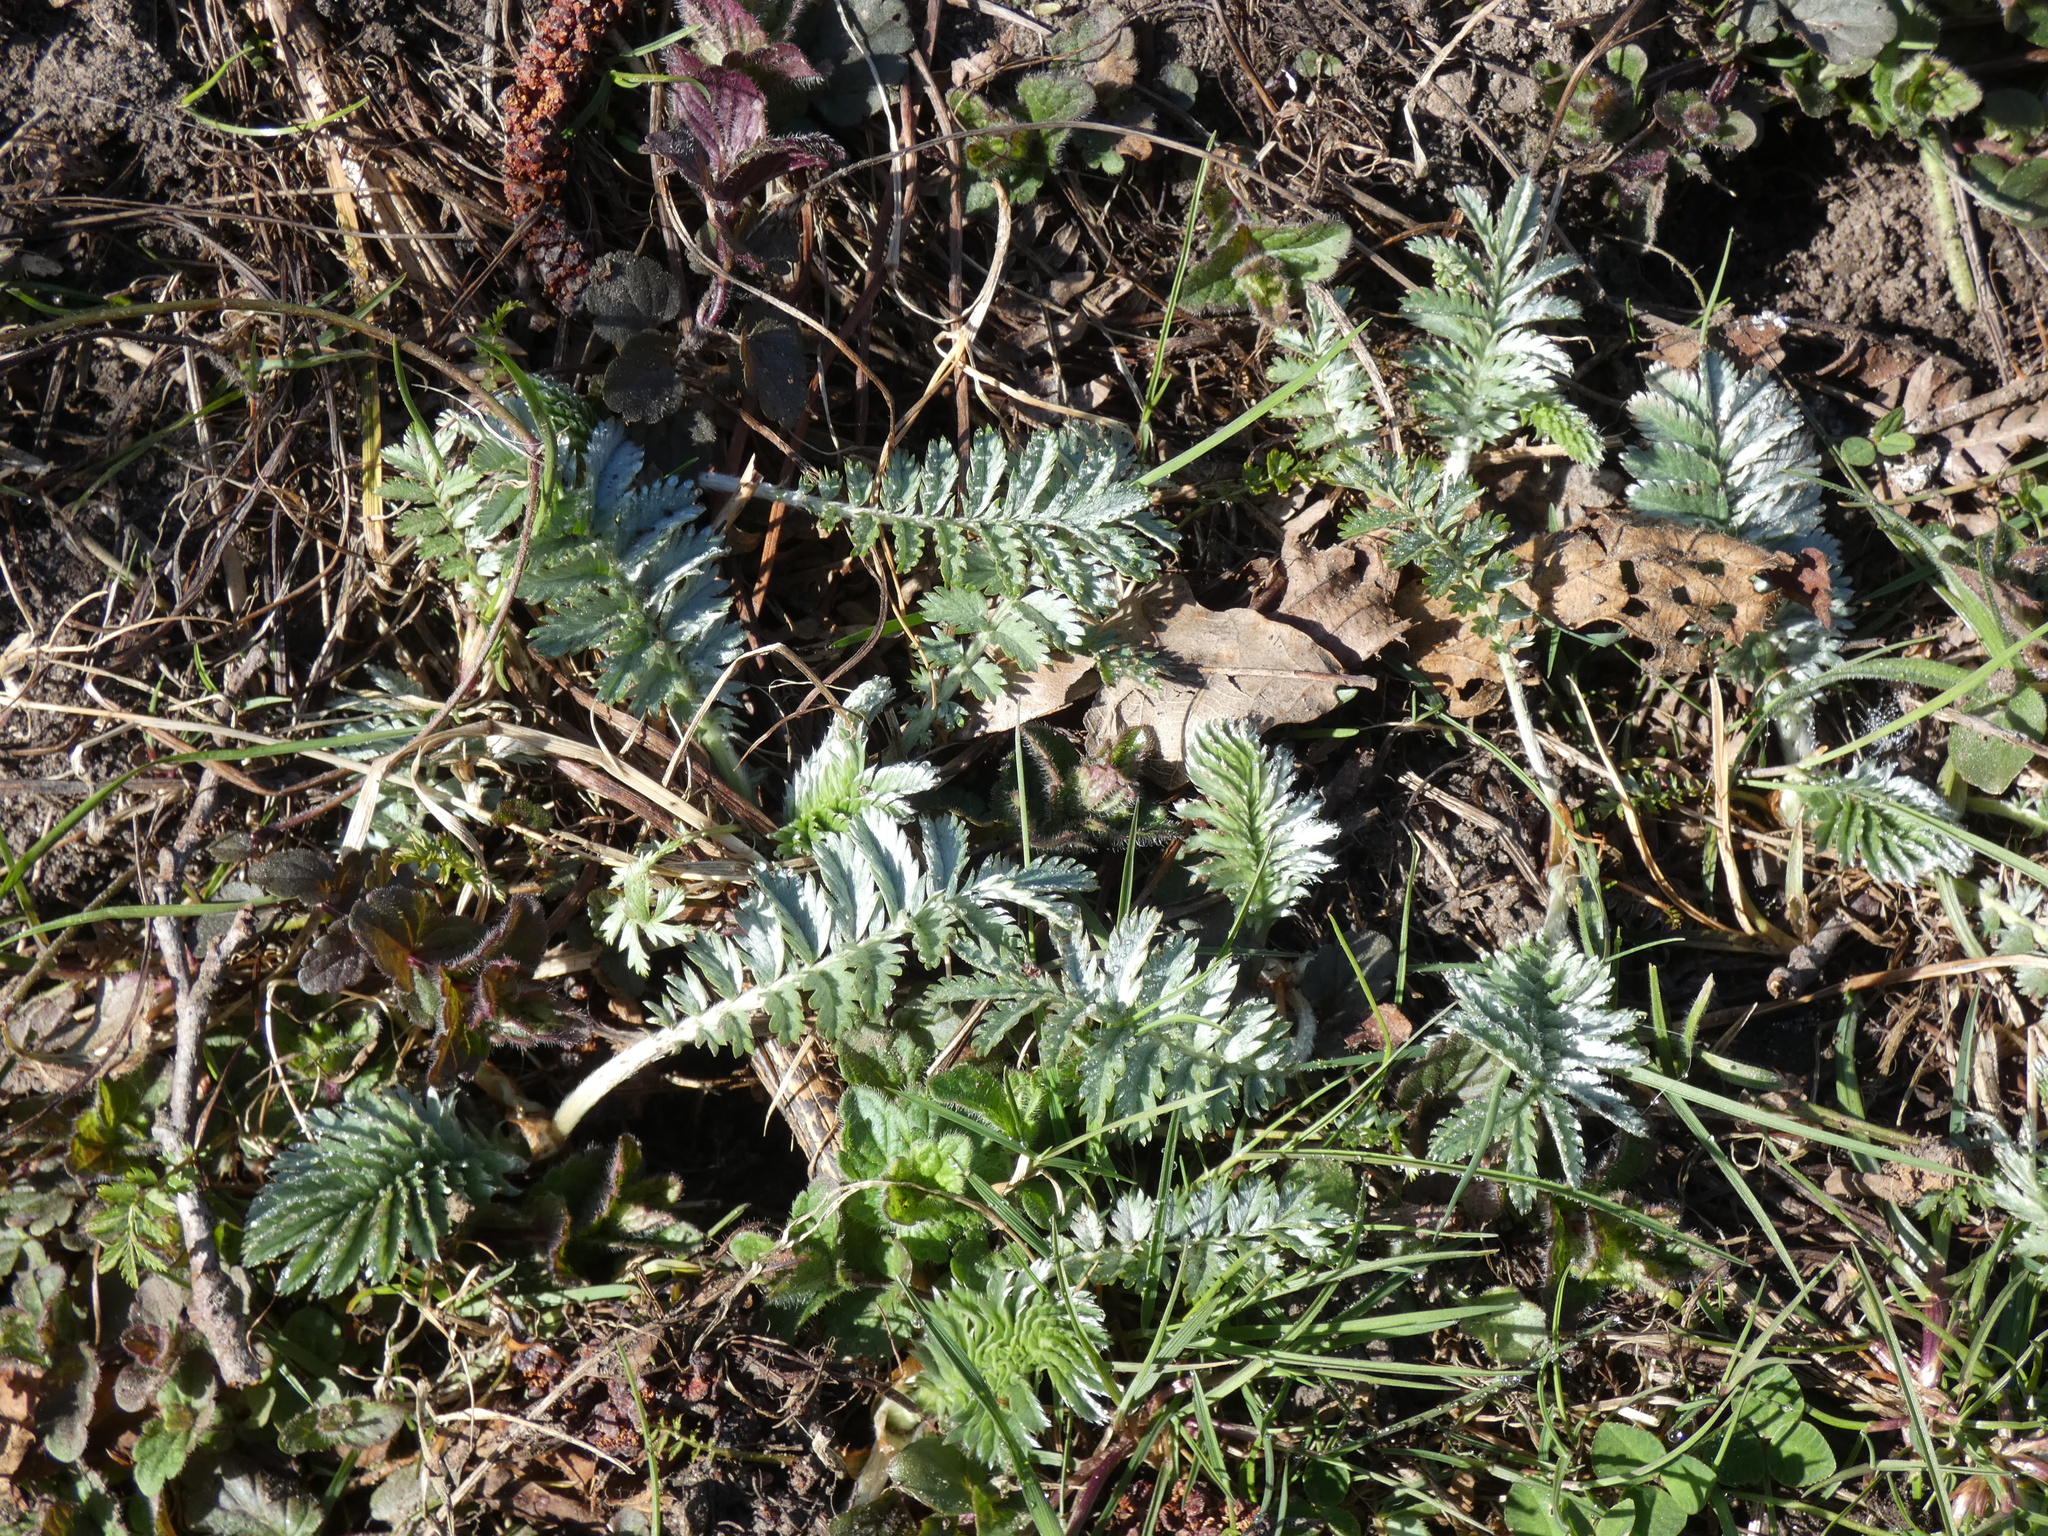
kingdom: Plantae
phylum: Tracheophyta
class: Magnoliopsida
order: Rosales
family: Rosaceae
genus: Argentina
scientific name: Argentina anserina
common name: Common silverweed
